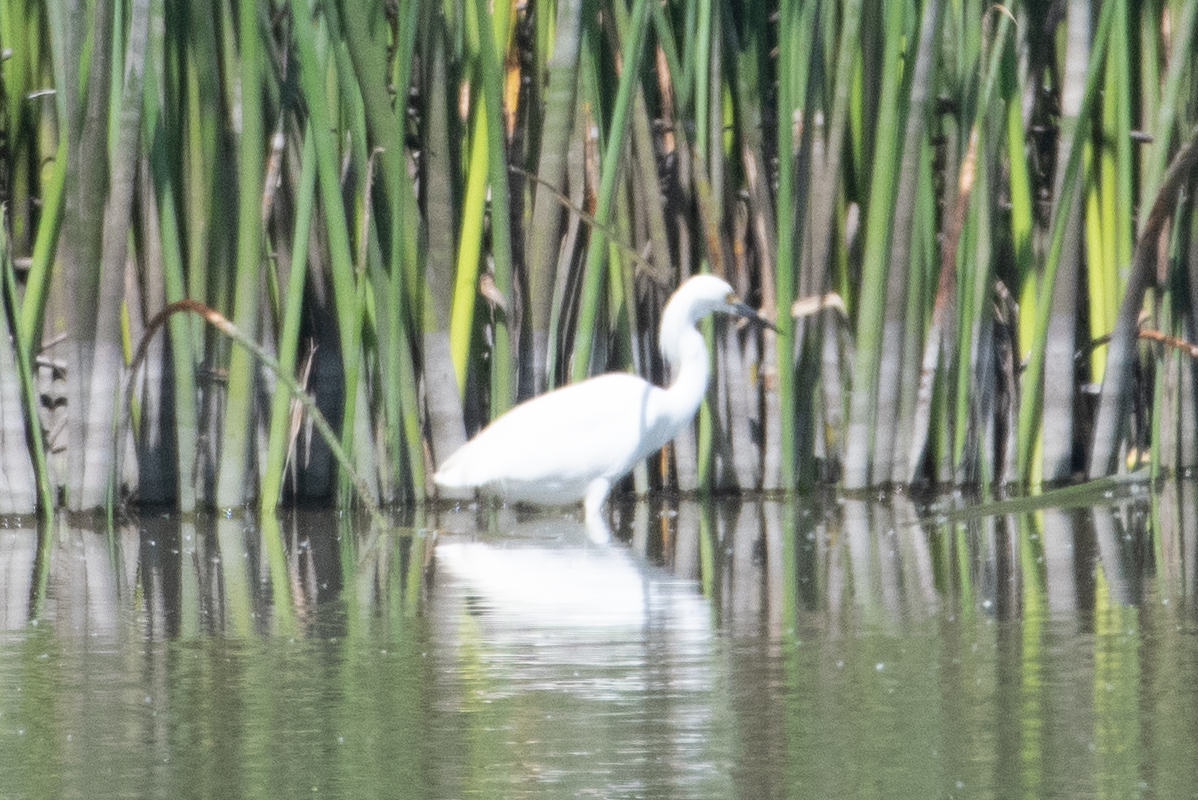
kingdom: Animalia
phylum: Chordata
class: Aves
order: Pelecaniformes
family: Ardeidae
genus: Egretta
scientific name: Egretta thula
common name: Snowy egret
